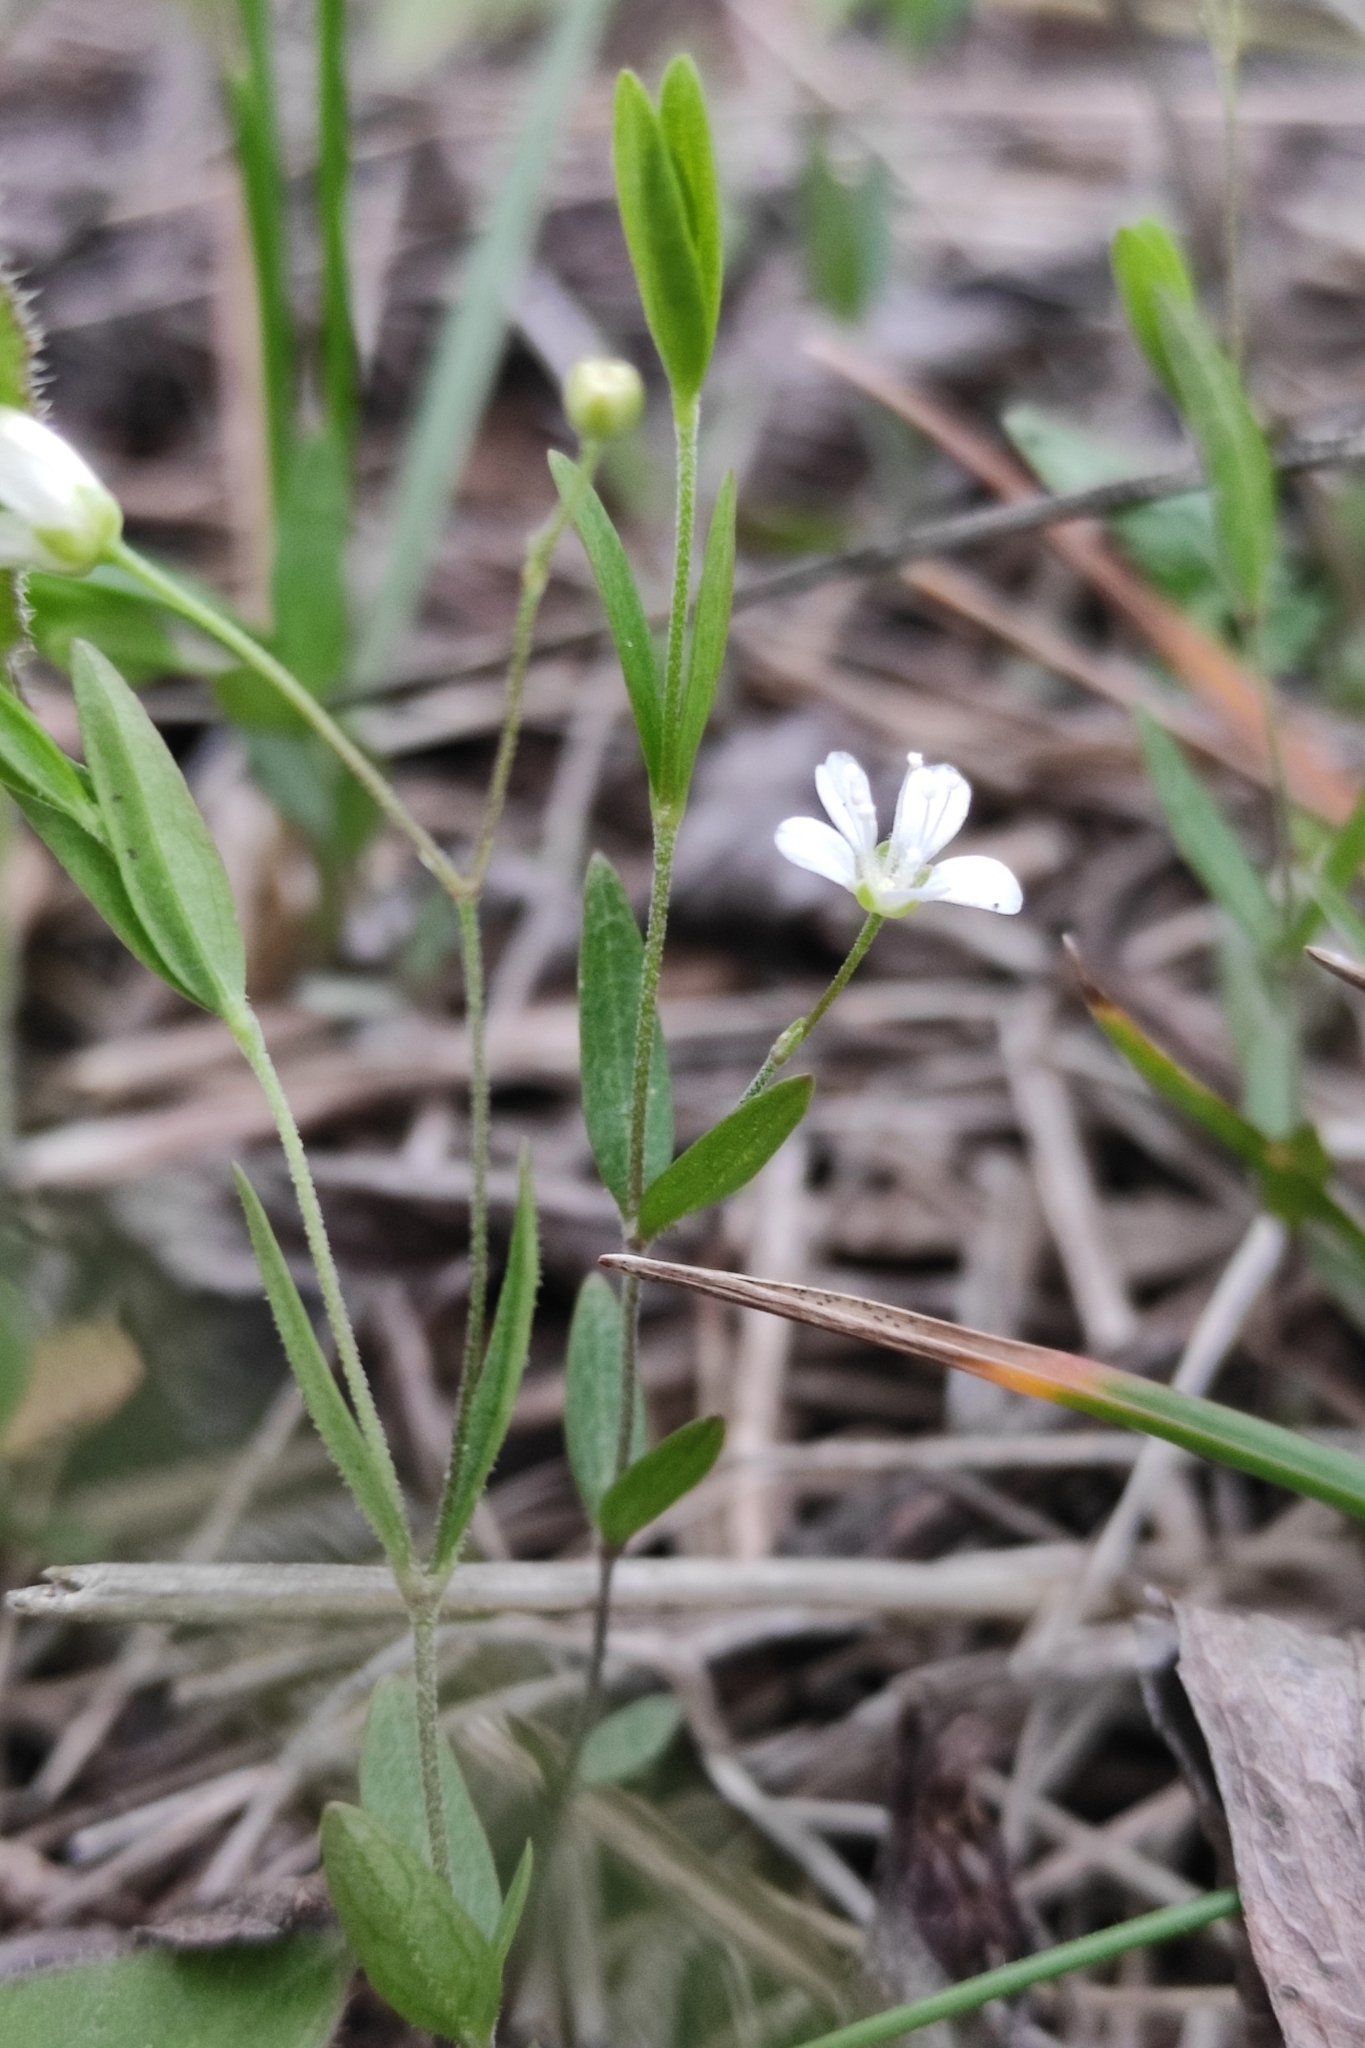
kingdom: Plantae
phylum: Tracheophyta
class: Magnoliopsida
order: Caryophyllales
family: Caryophyllaceae
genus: Moehringia
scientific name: Moehringia lateriflora
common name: Blunt-leaved sandwort
